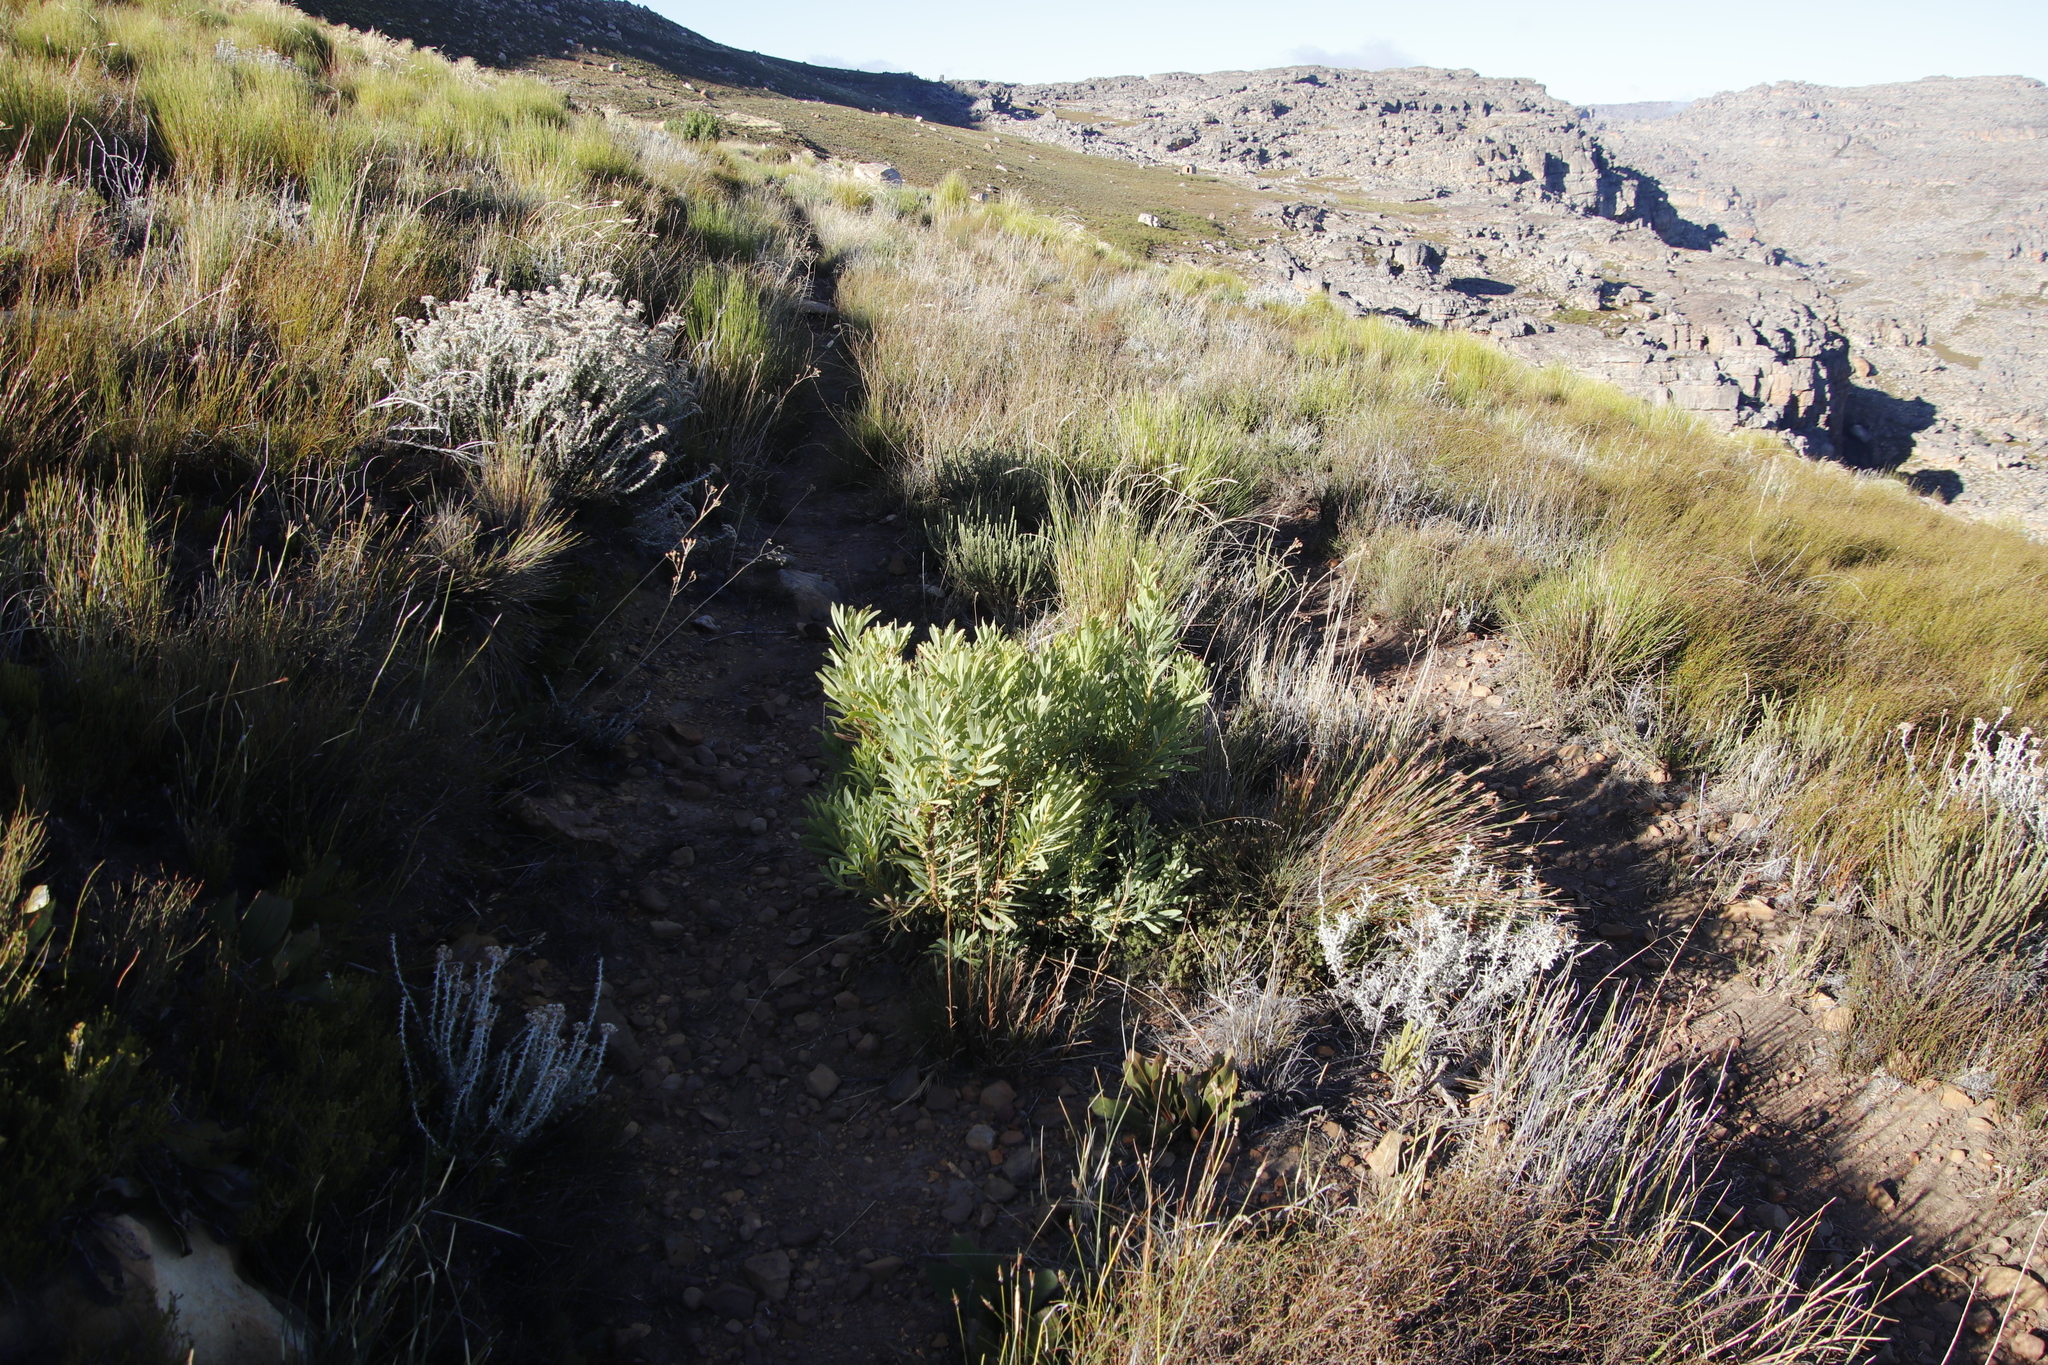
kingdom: Plantae
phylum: Tracheophyta
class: Magnoliopsida
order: Proteales
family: Proteaceae
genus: Protea
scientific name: Protea repens
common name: Sugarbush
